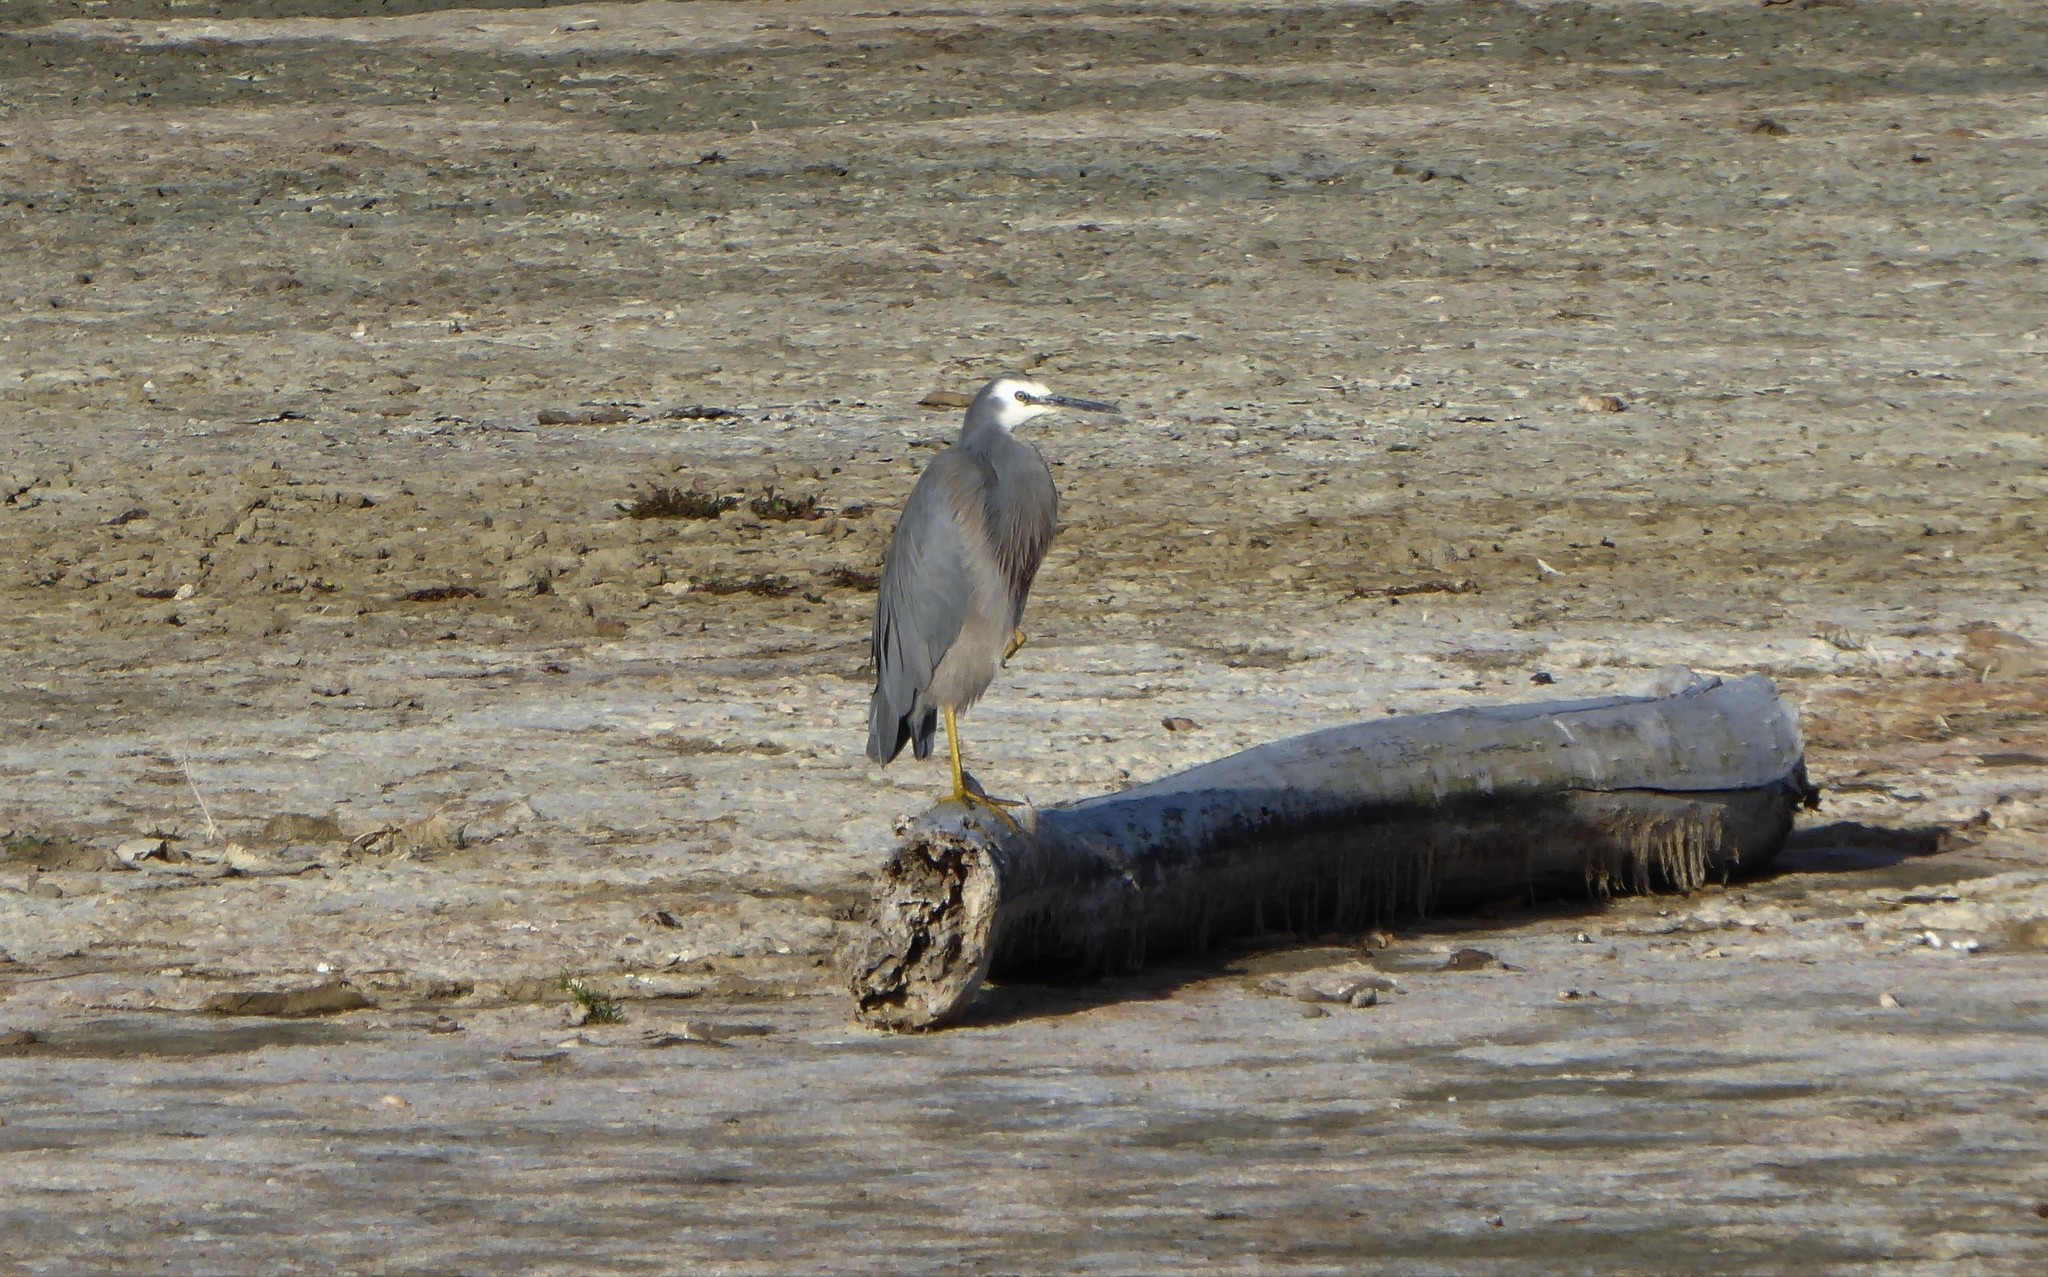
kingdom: Animalia
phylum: Chordata
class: Aves
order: Pelecaniformes
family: Ardeidae
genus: Egretta
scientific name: Egretta novaehollandiae
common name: White-faced heron
